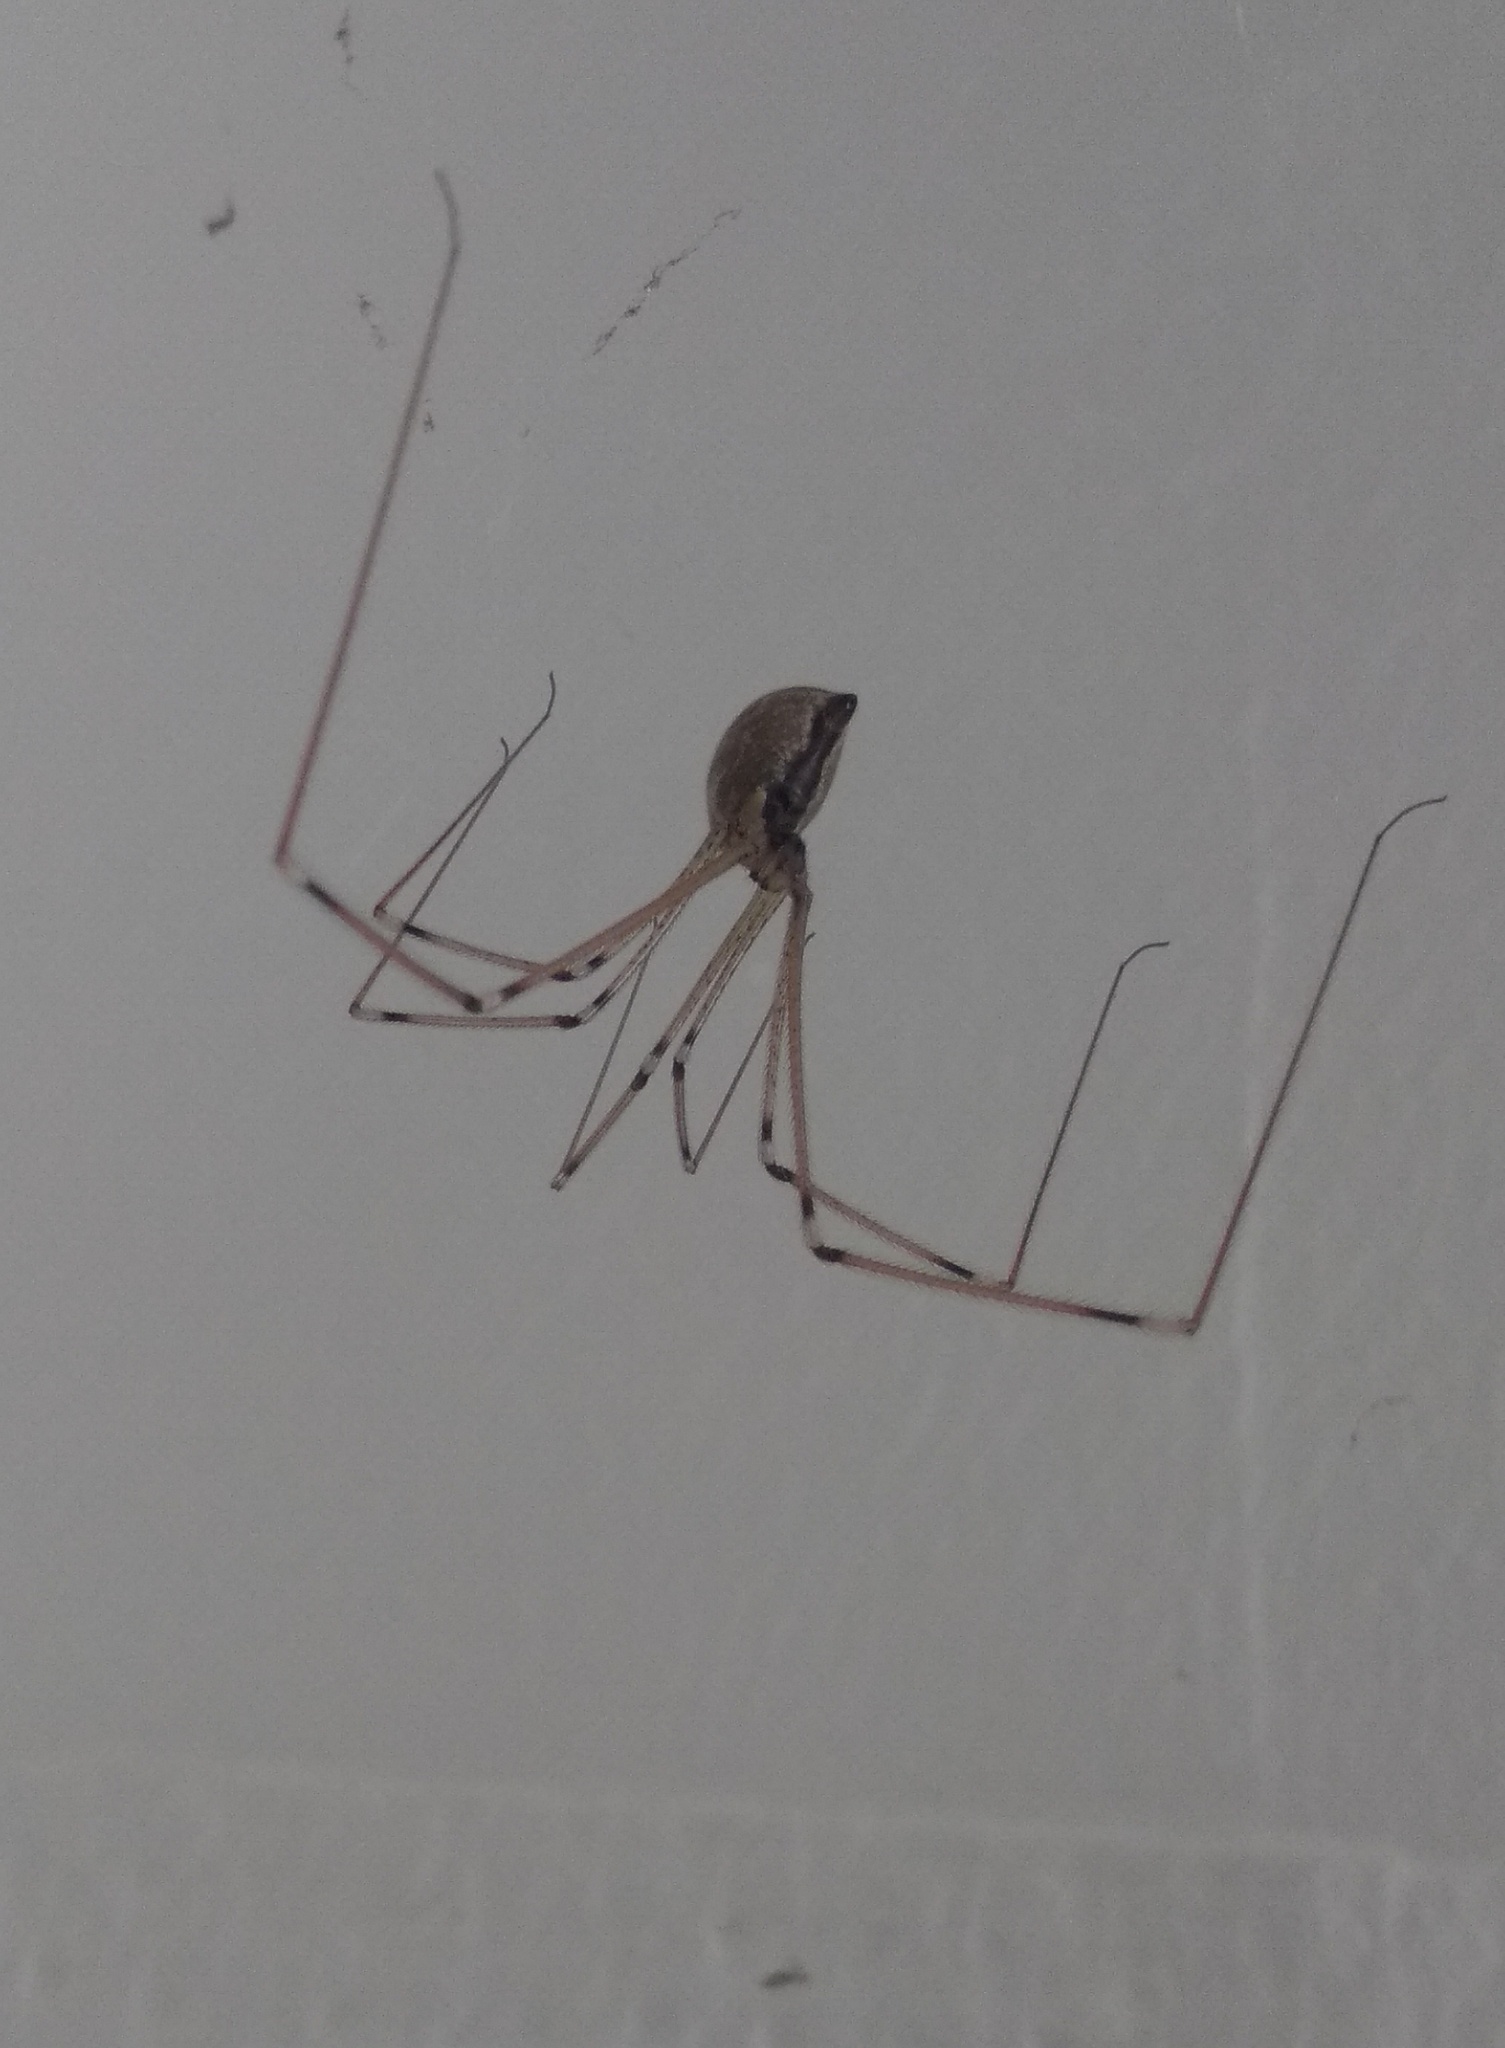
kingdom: Animalia
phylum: Arthropoda
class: Arachnida
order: Araneae
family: Pholcidae
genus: Holocnemus
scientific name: Holocnemus pluchei
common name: Marbled cellar spider
